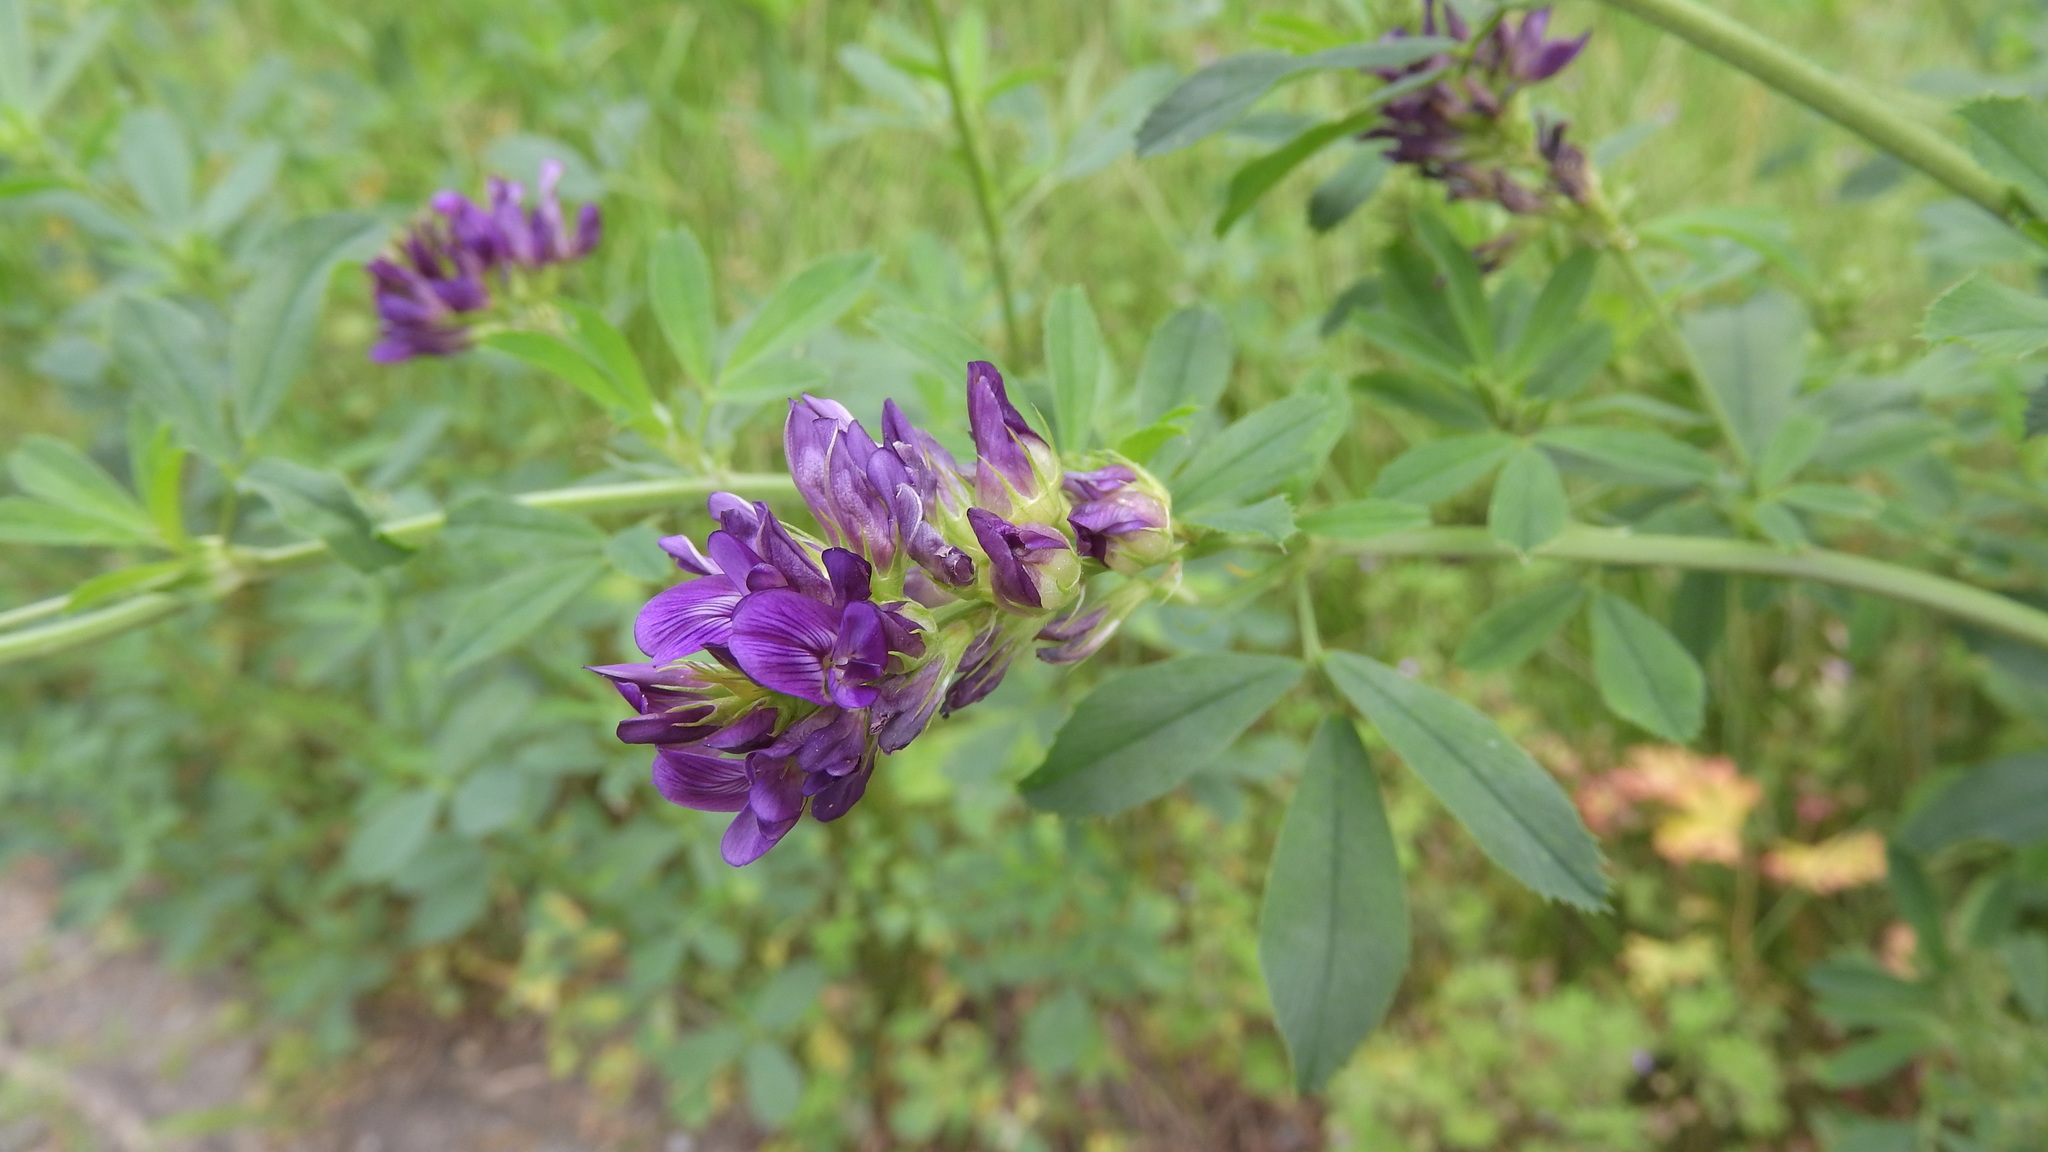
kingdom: Plantae
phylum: Tracheophyta
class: Magnoliopsida
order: Fabales
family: Fabaceae
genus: Medicago
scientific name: Medicago sativa
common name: Alfalfa
